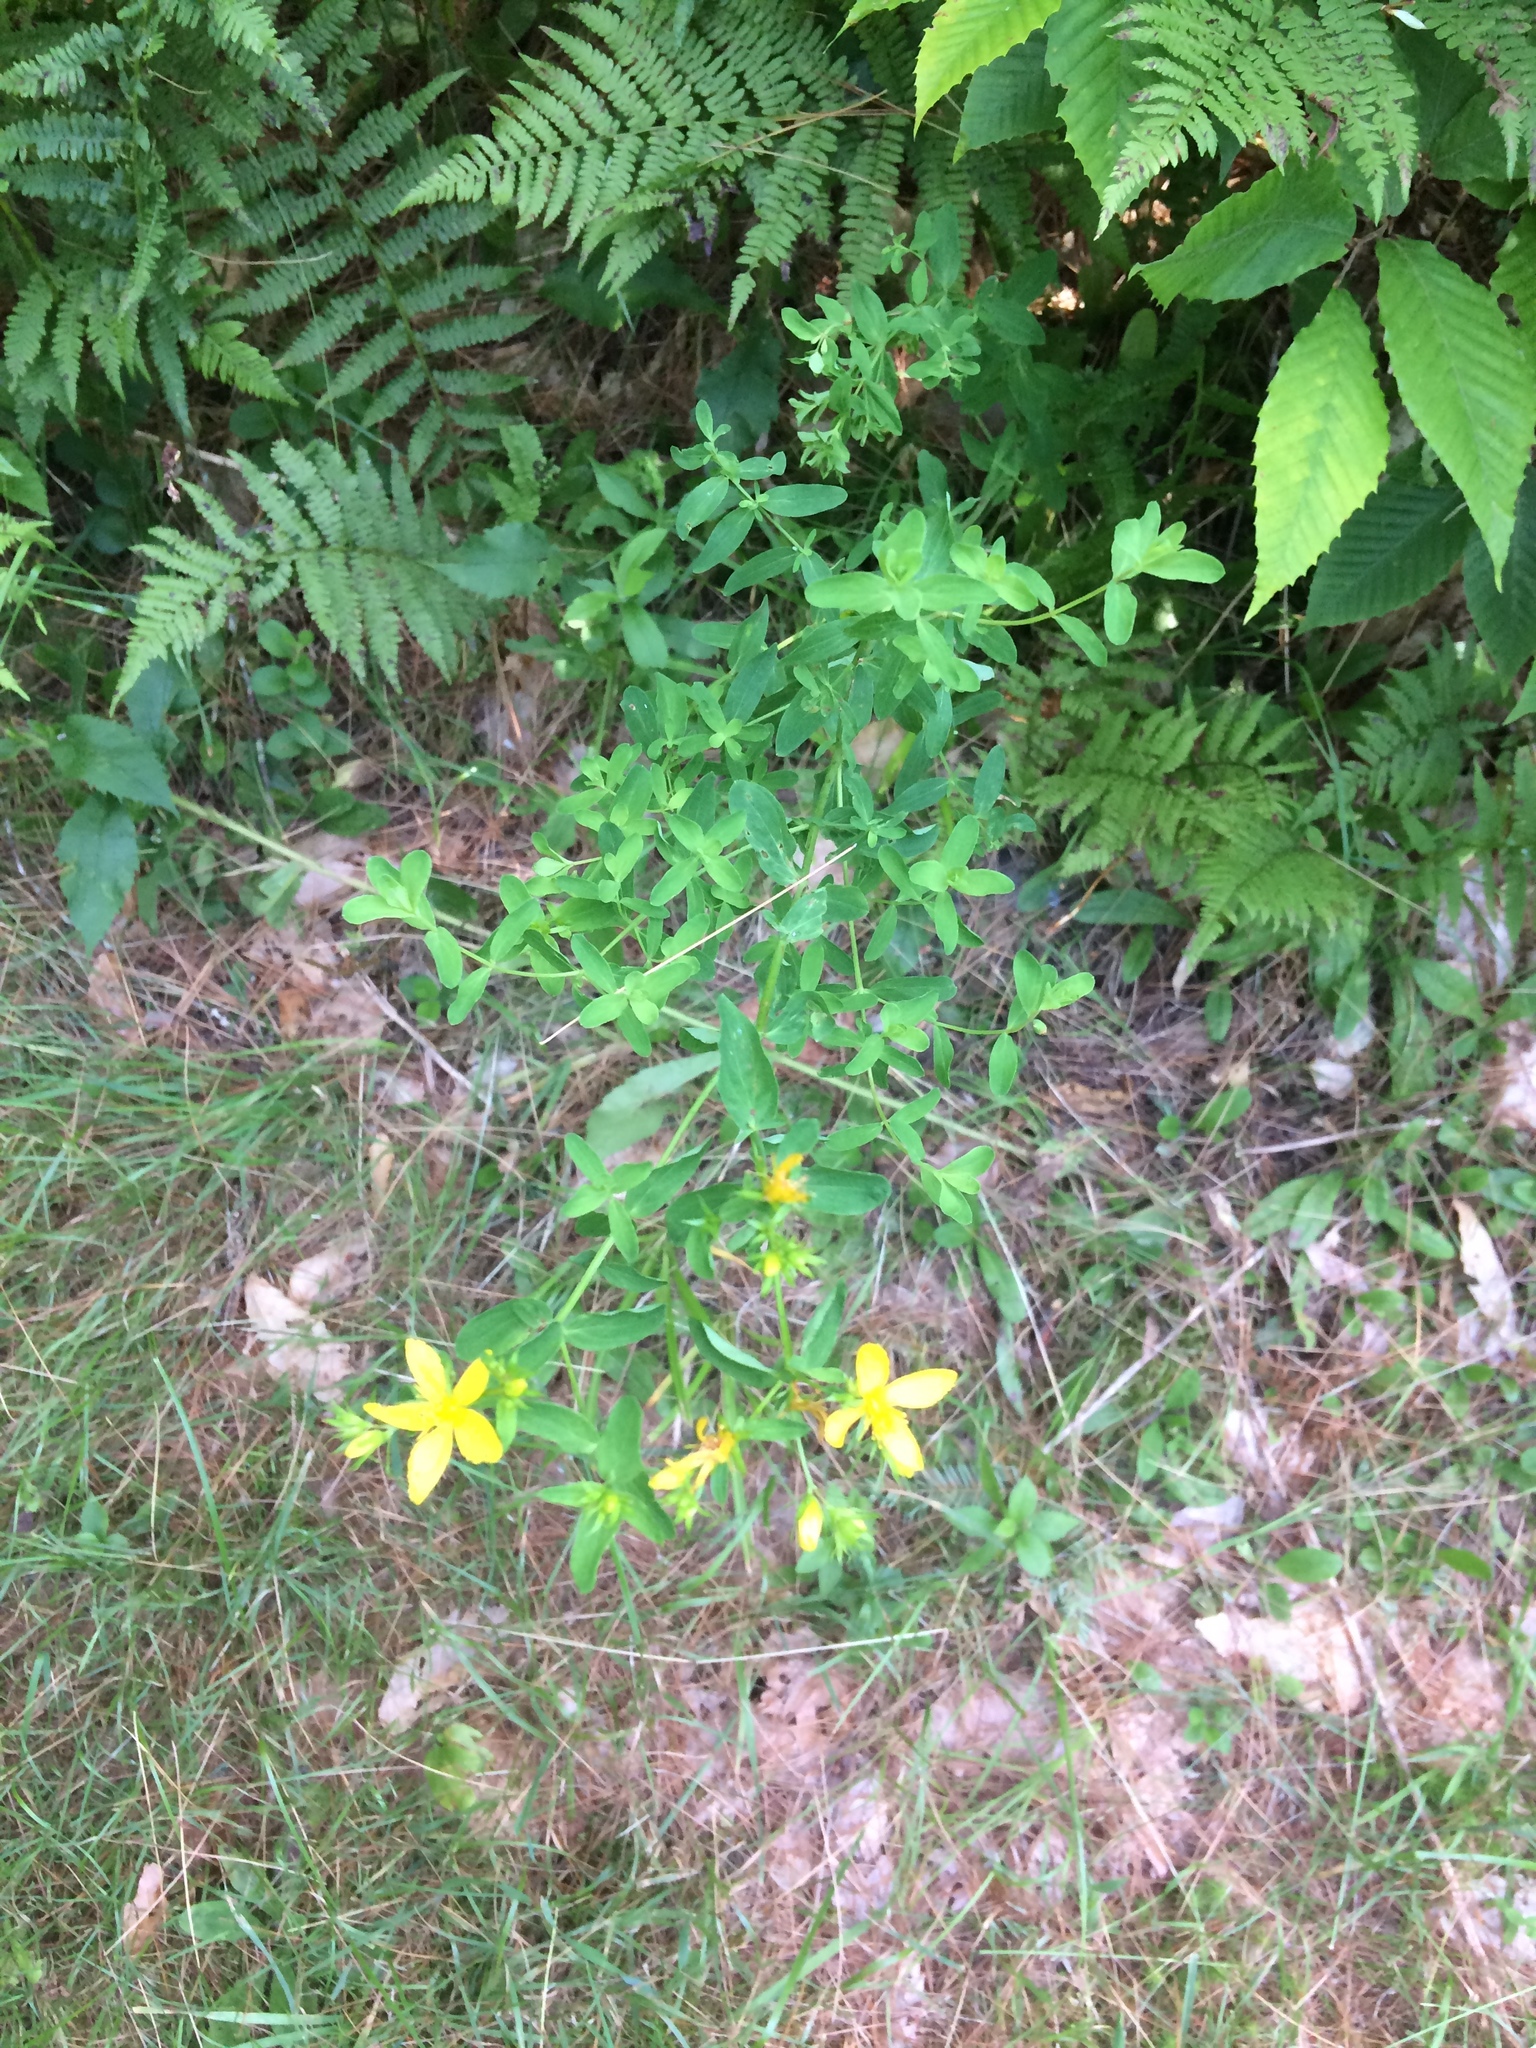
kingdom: Plantae
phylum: Tracheophyta
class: Magnoliopsida
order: Malpighiales
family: Hypericaceae
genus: Hypericum
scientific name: Hypericum perforatum
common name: Common st. johnswort
